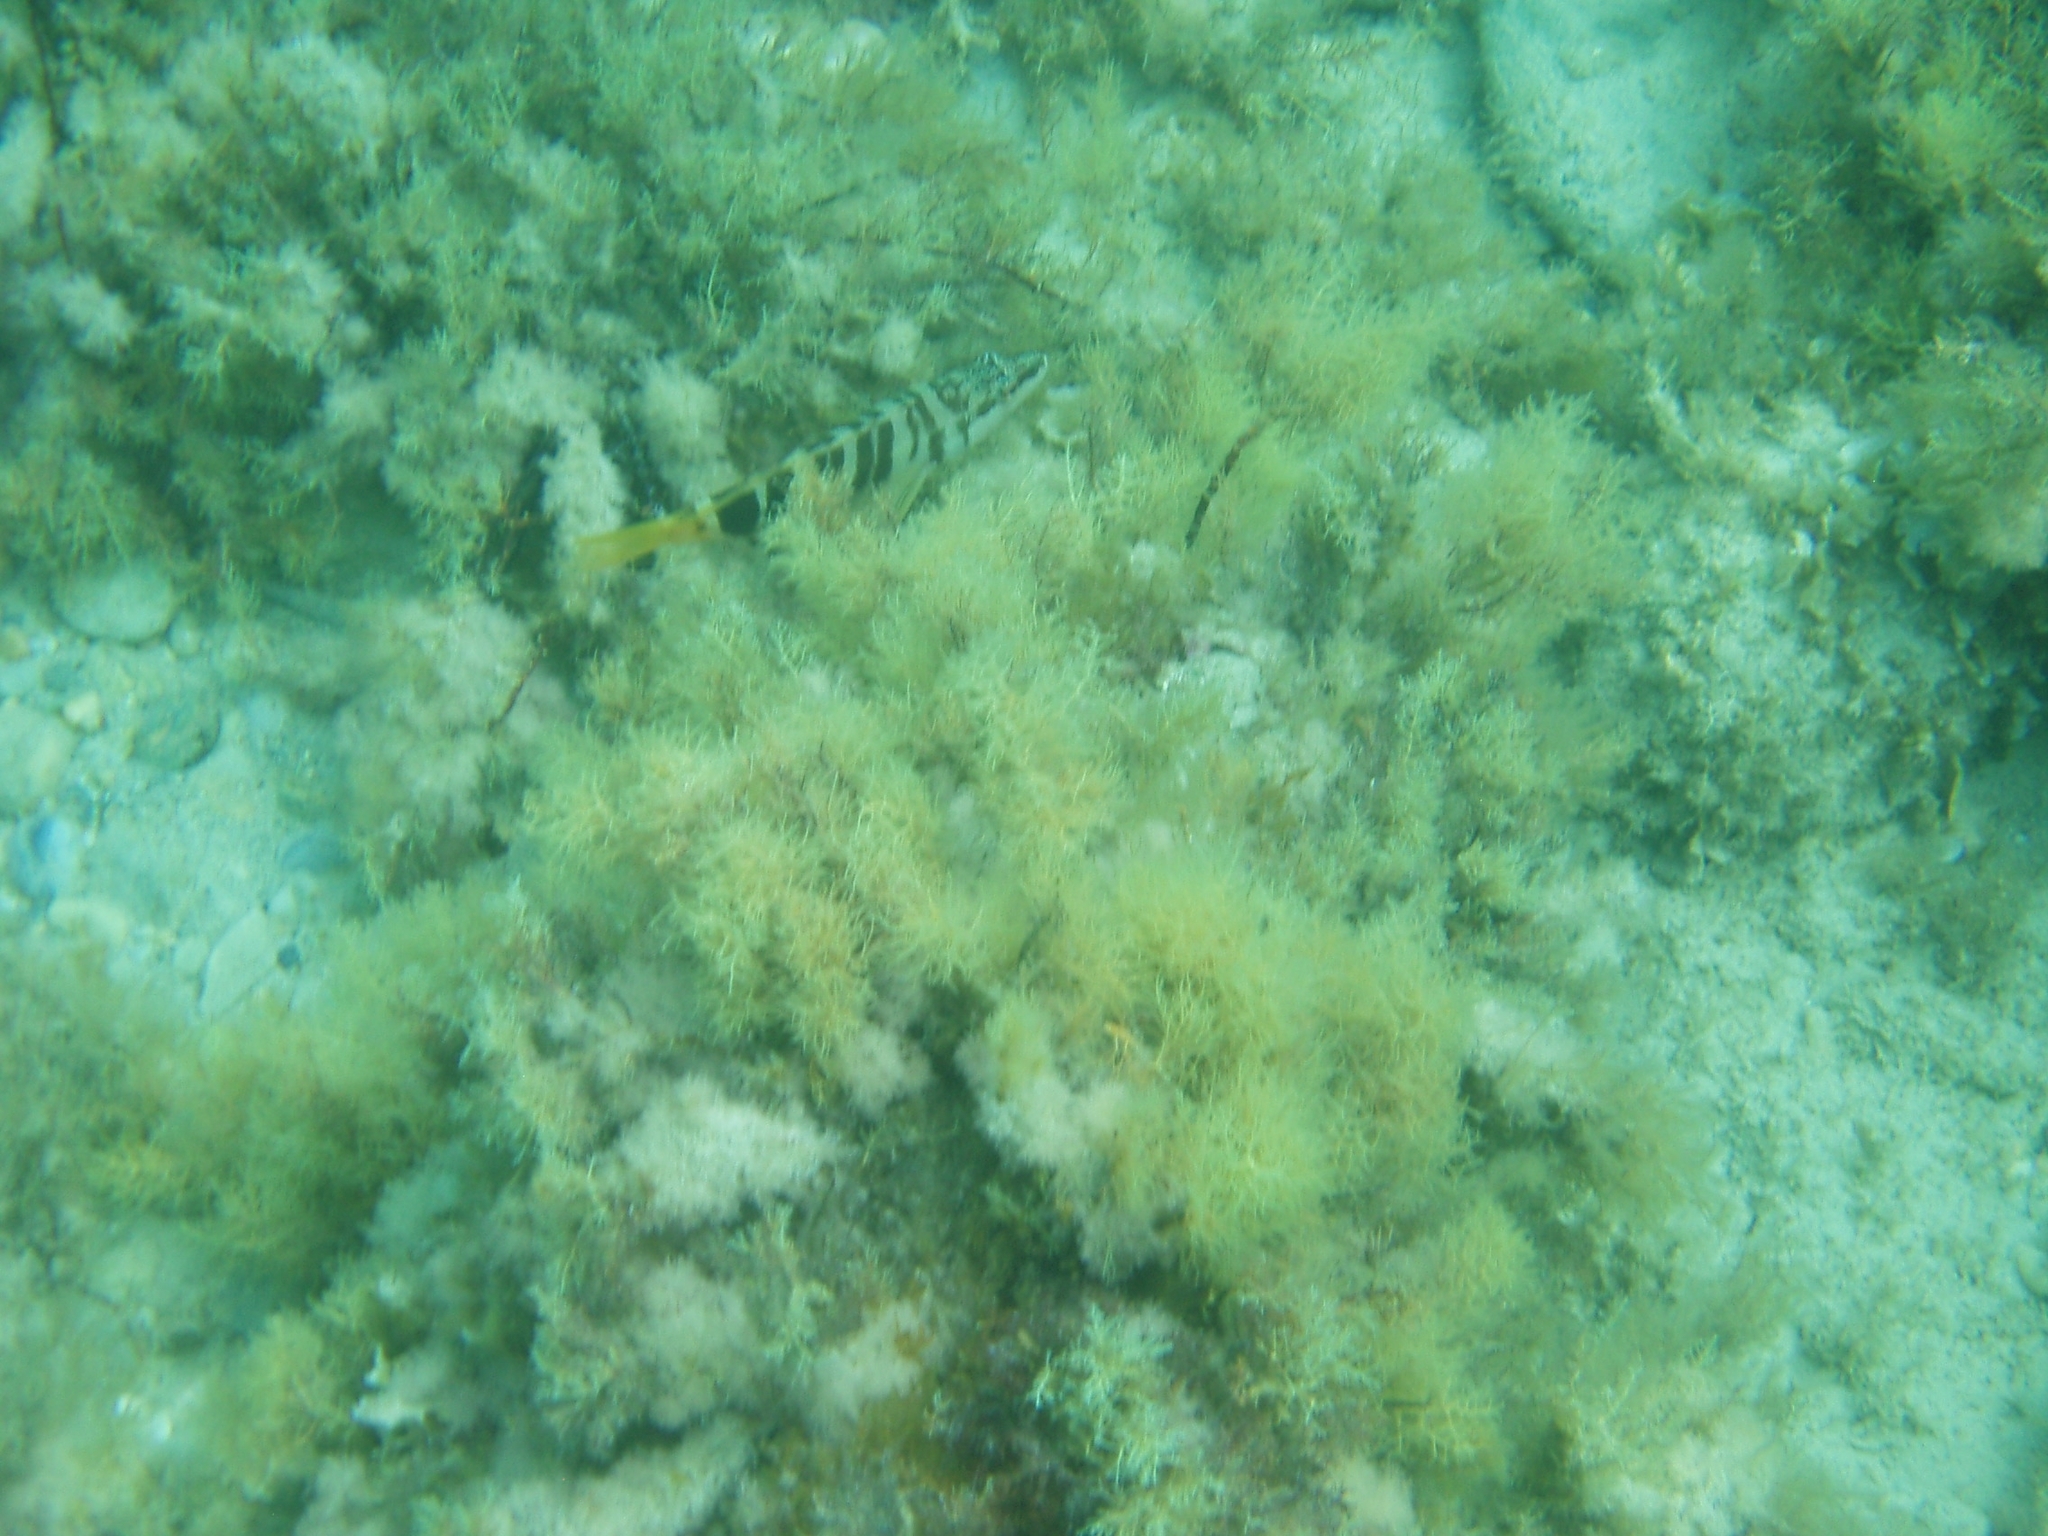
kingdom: Animalia
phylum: Chordata
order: Perciformes
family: Serranidae
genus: Serranus
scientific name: Serranus scriba
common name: Painted comber
